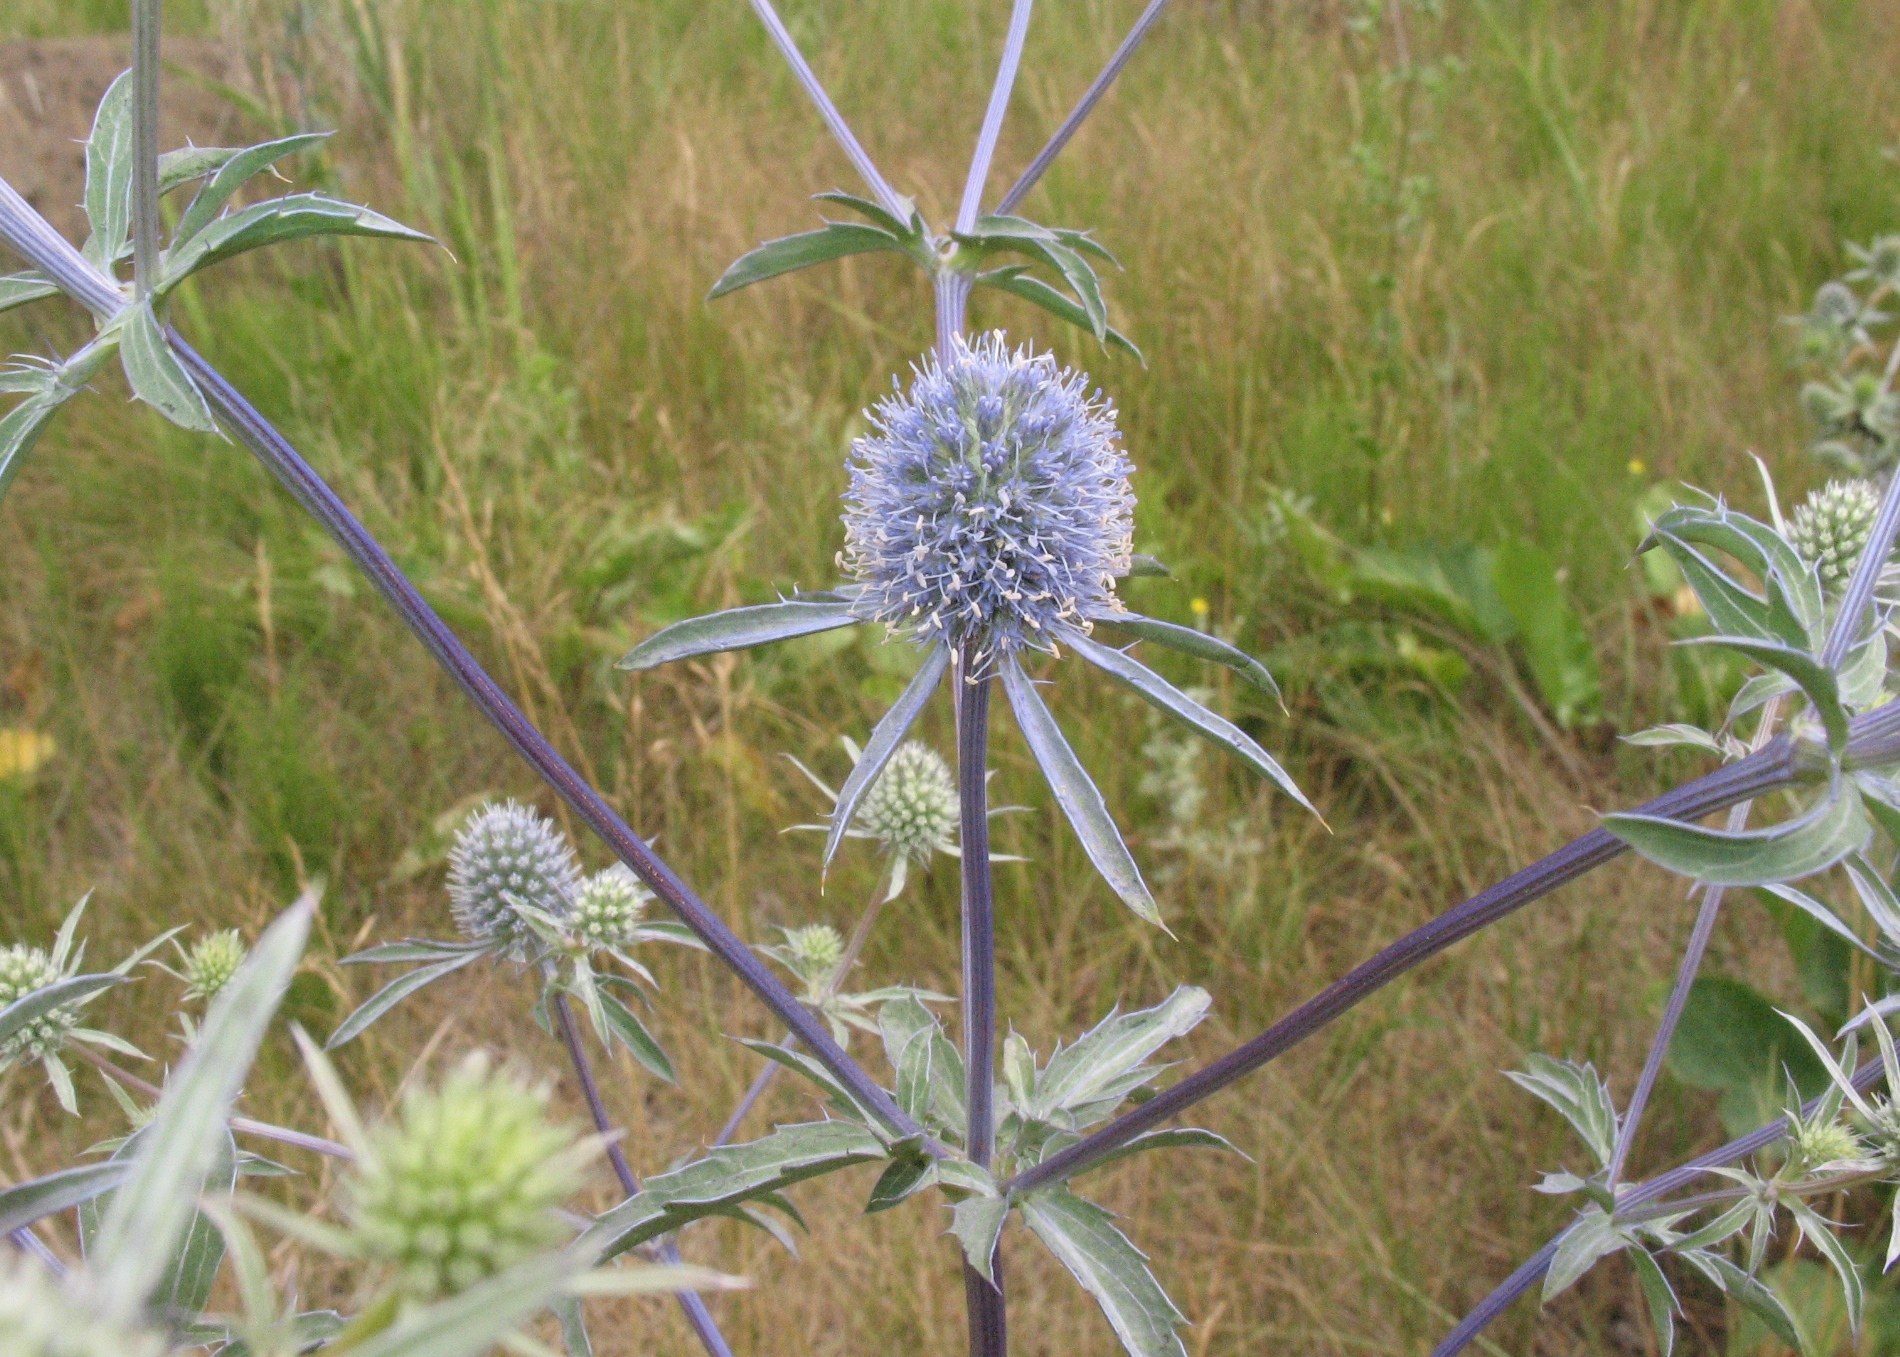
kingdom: Plantae
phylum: Tracheophyta
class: Magnoliopsida
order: Apiales
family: Apiaceae
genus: Eryngium
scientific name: Eryngium planum
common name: Blue eryngo
